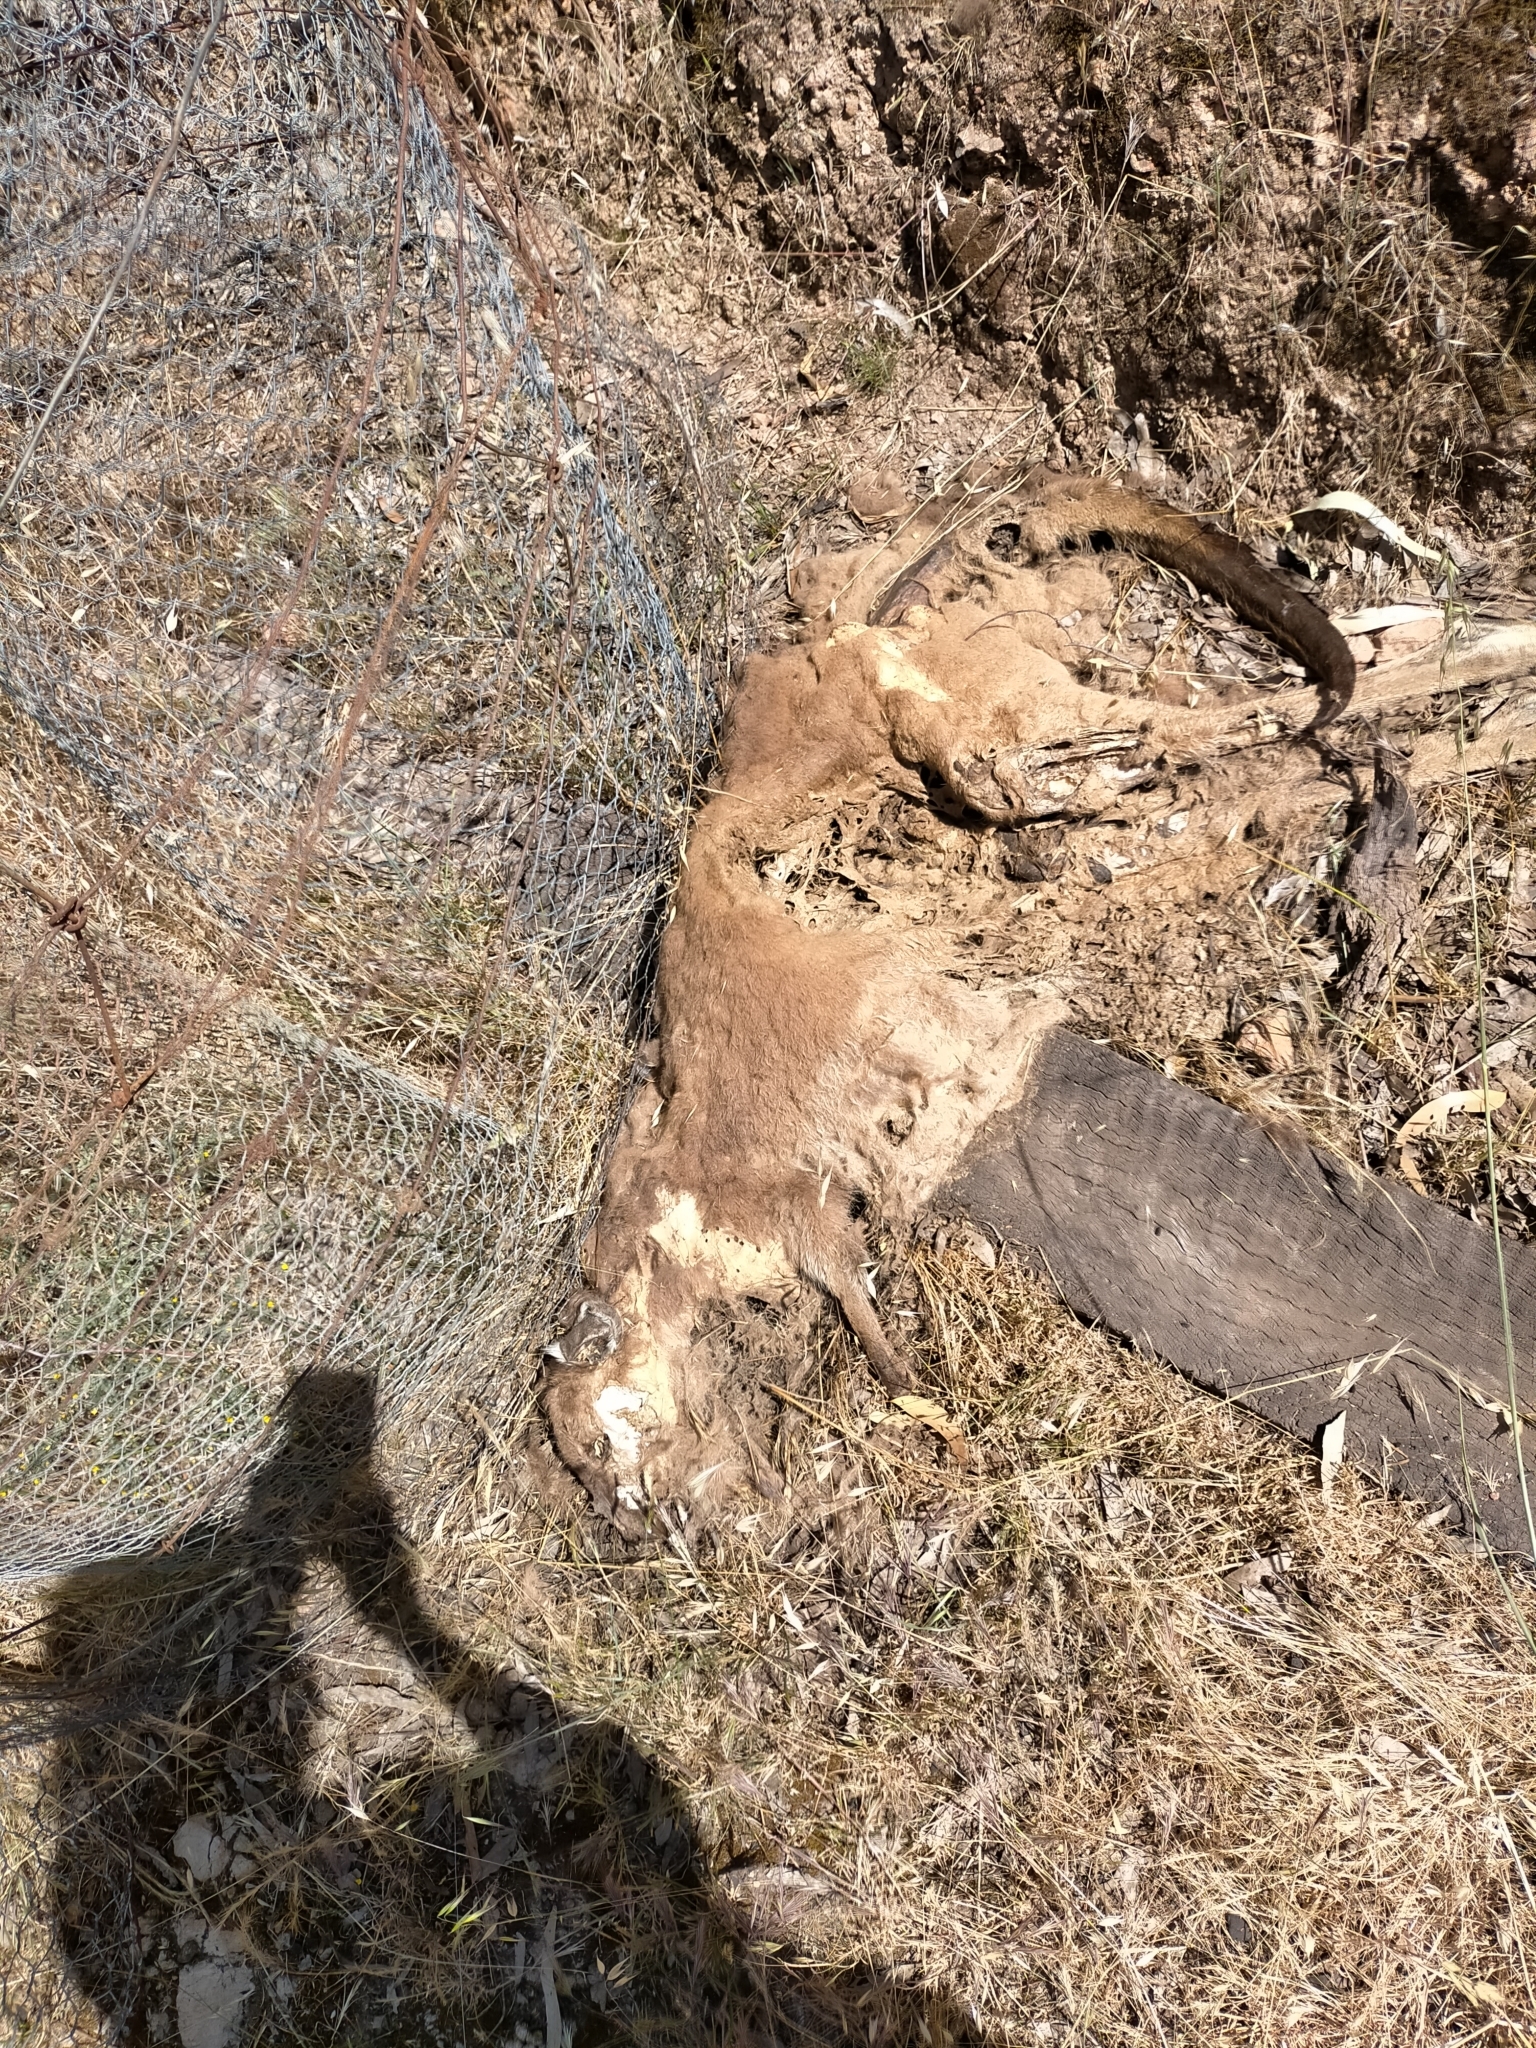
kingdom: Animalia
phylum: Chordata
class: Mammalia
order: Diprotodontia
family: Macropodidae
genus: Macropus
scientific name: Macropus fuliginosus
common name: Western grey kangaroo
